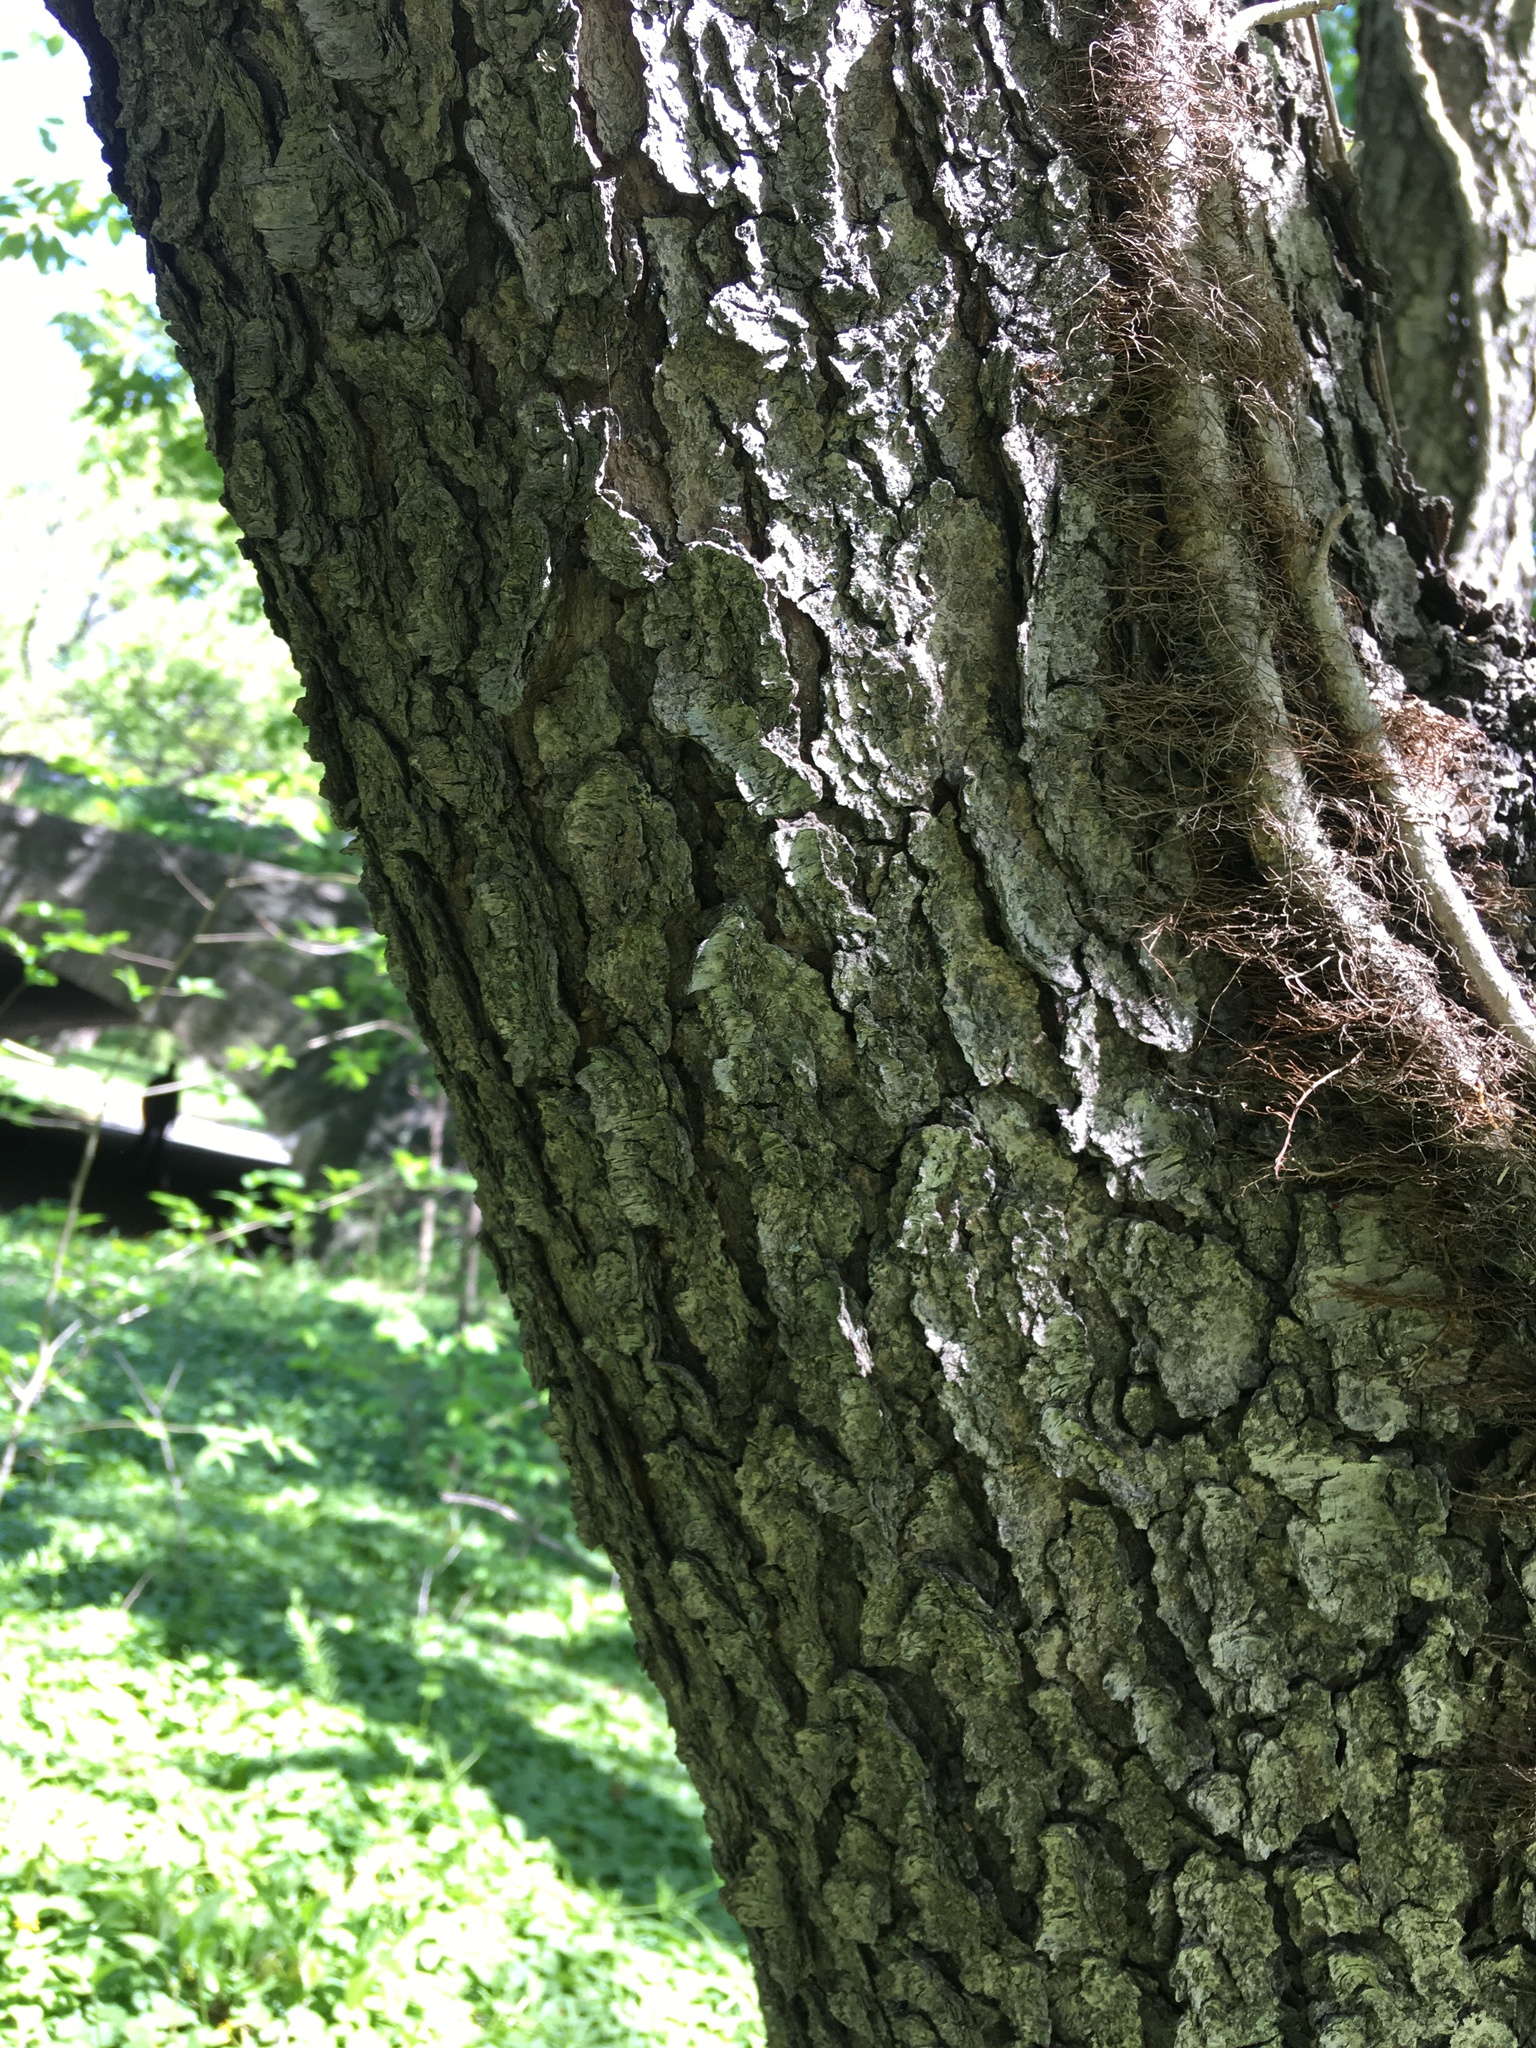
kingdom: Plantae
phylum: Tracheophyta
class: Magnoliopsida
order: Rosales
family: Rosaceae
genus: Prunus
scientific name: Prunus serotina
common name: Black cherry
